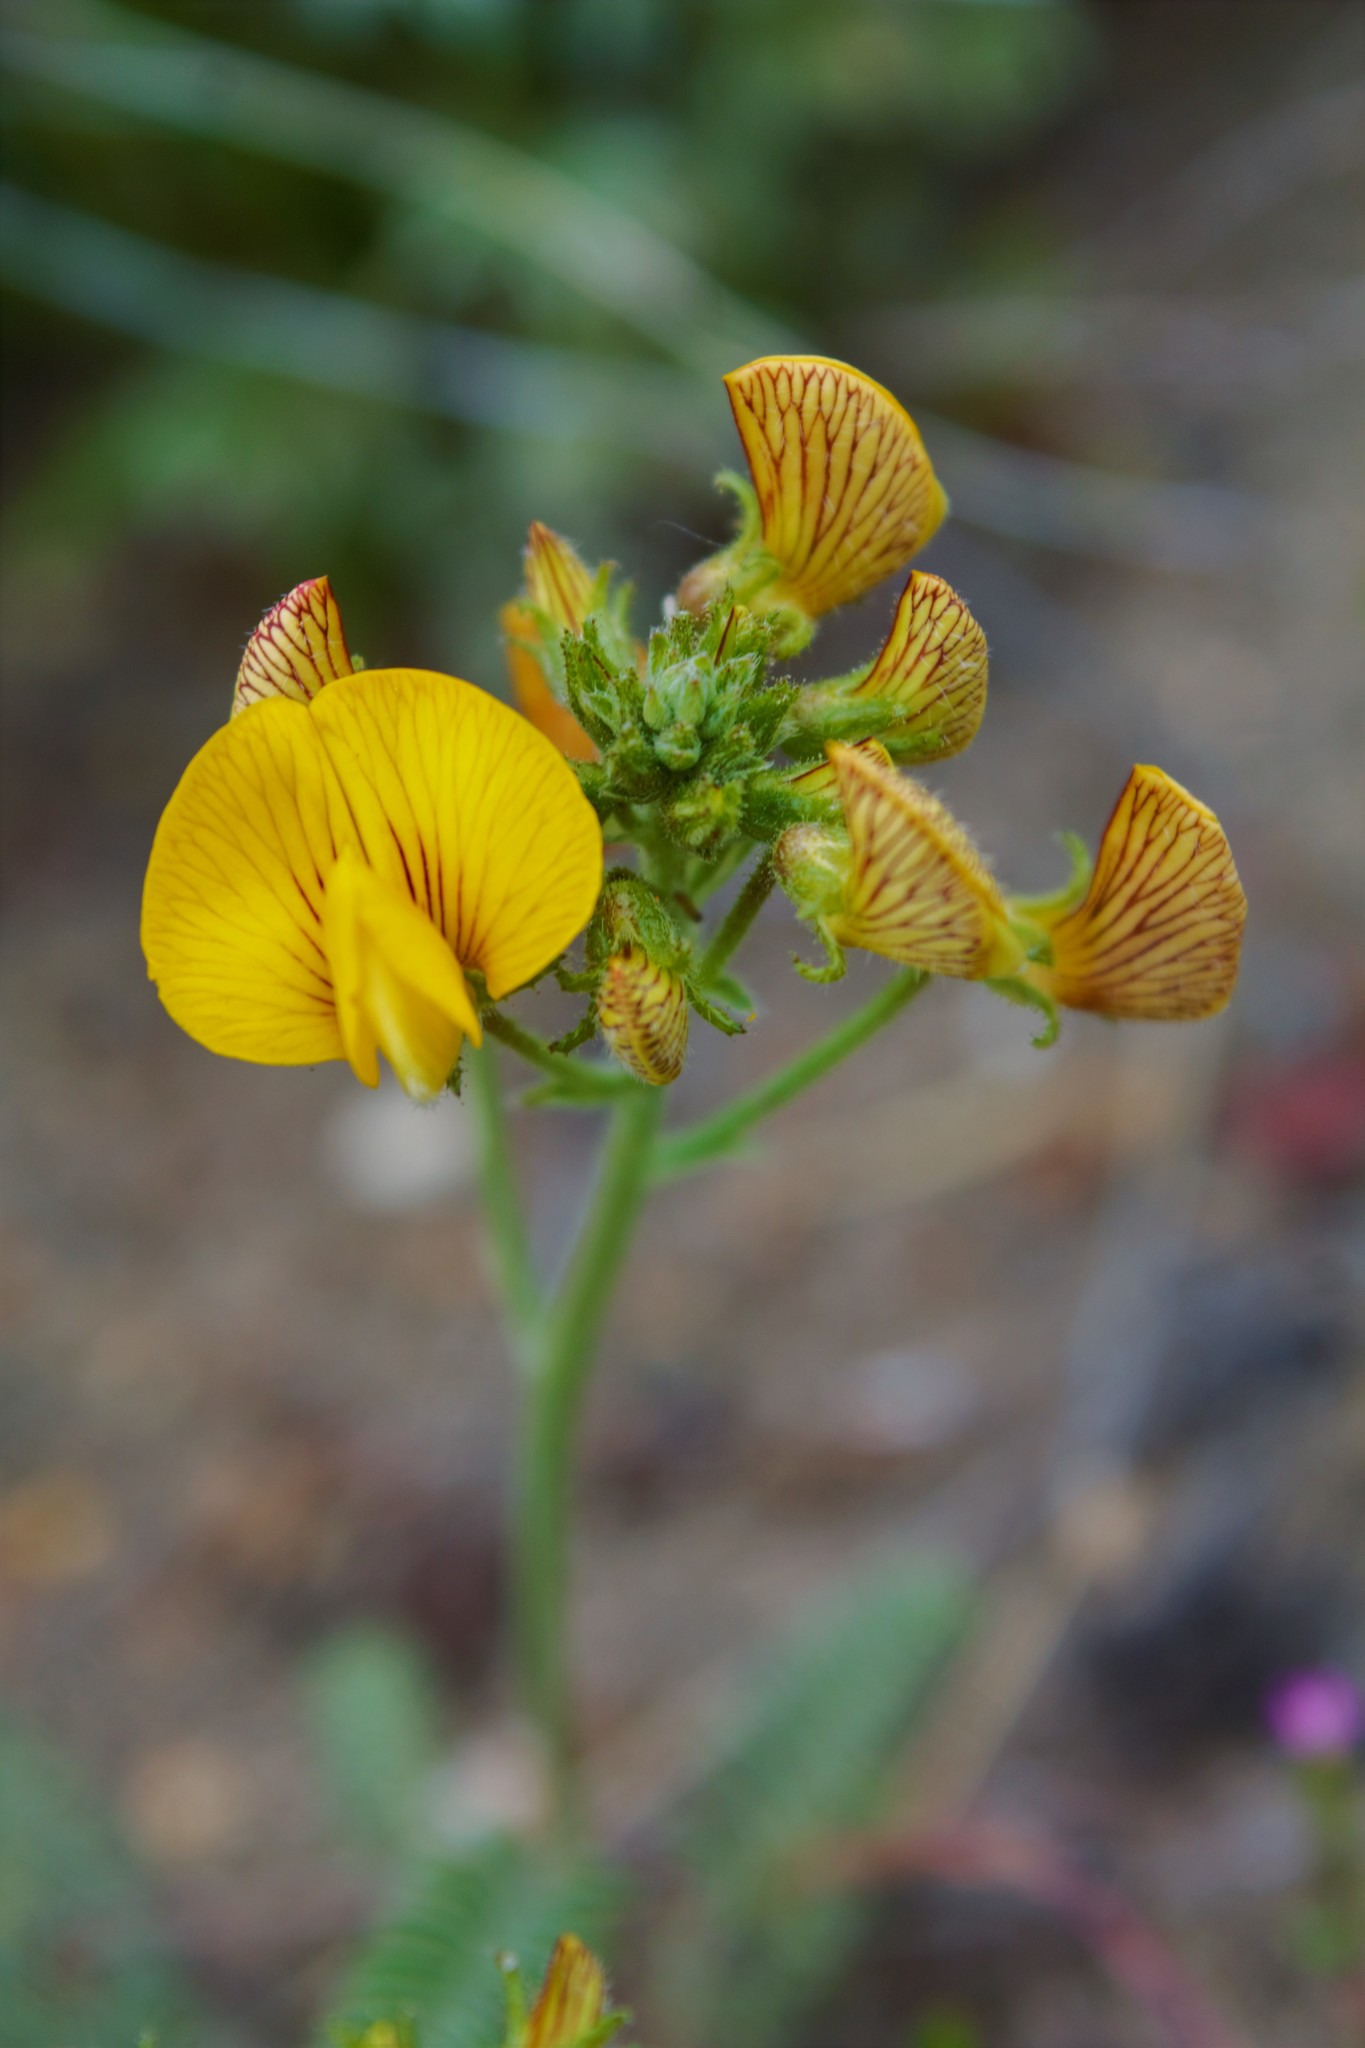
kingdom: Plantae
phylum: Tracheophyta
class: Magnoliopsida
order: Fabales
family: Fabaceae
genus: Adesmia
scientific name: Adesmia corymbosa
